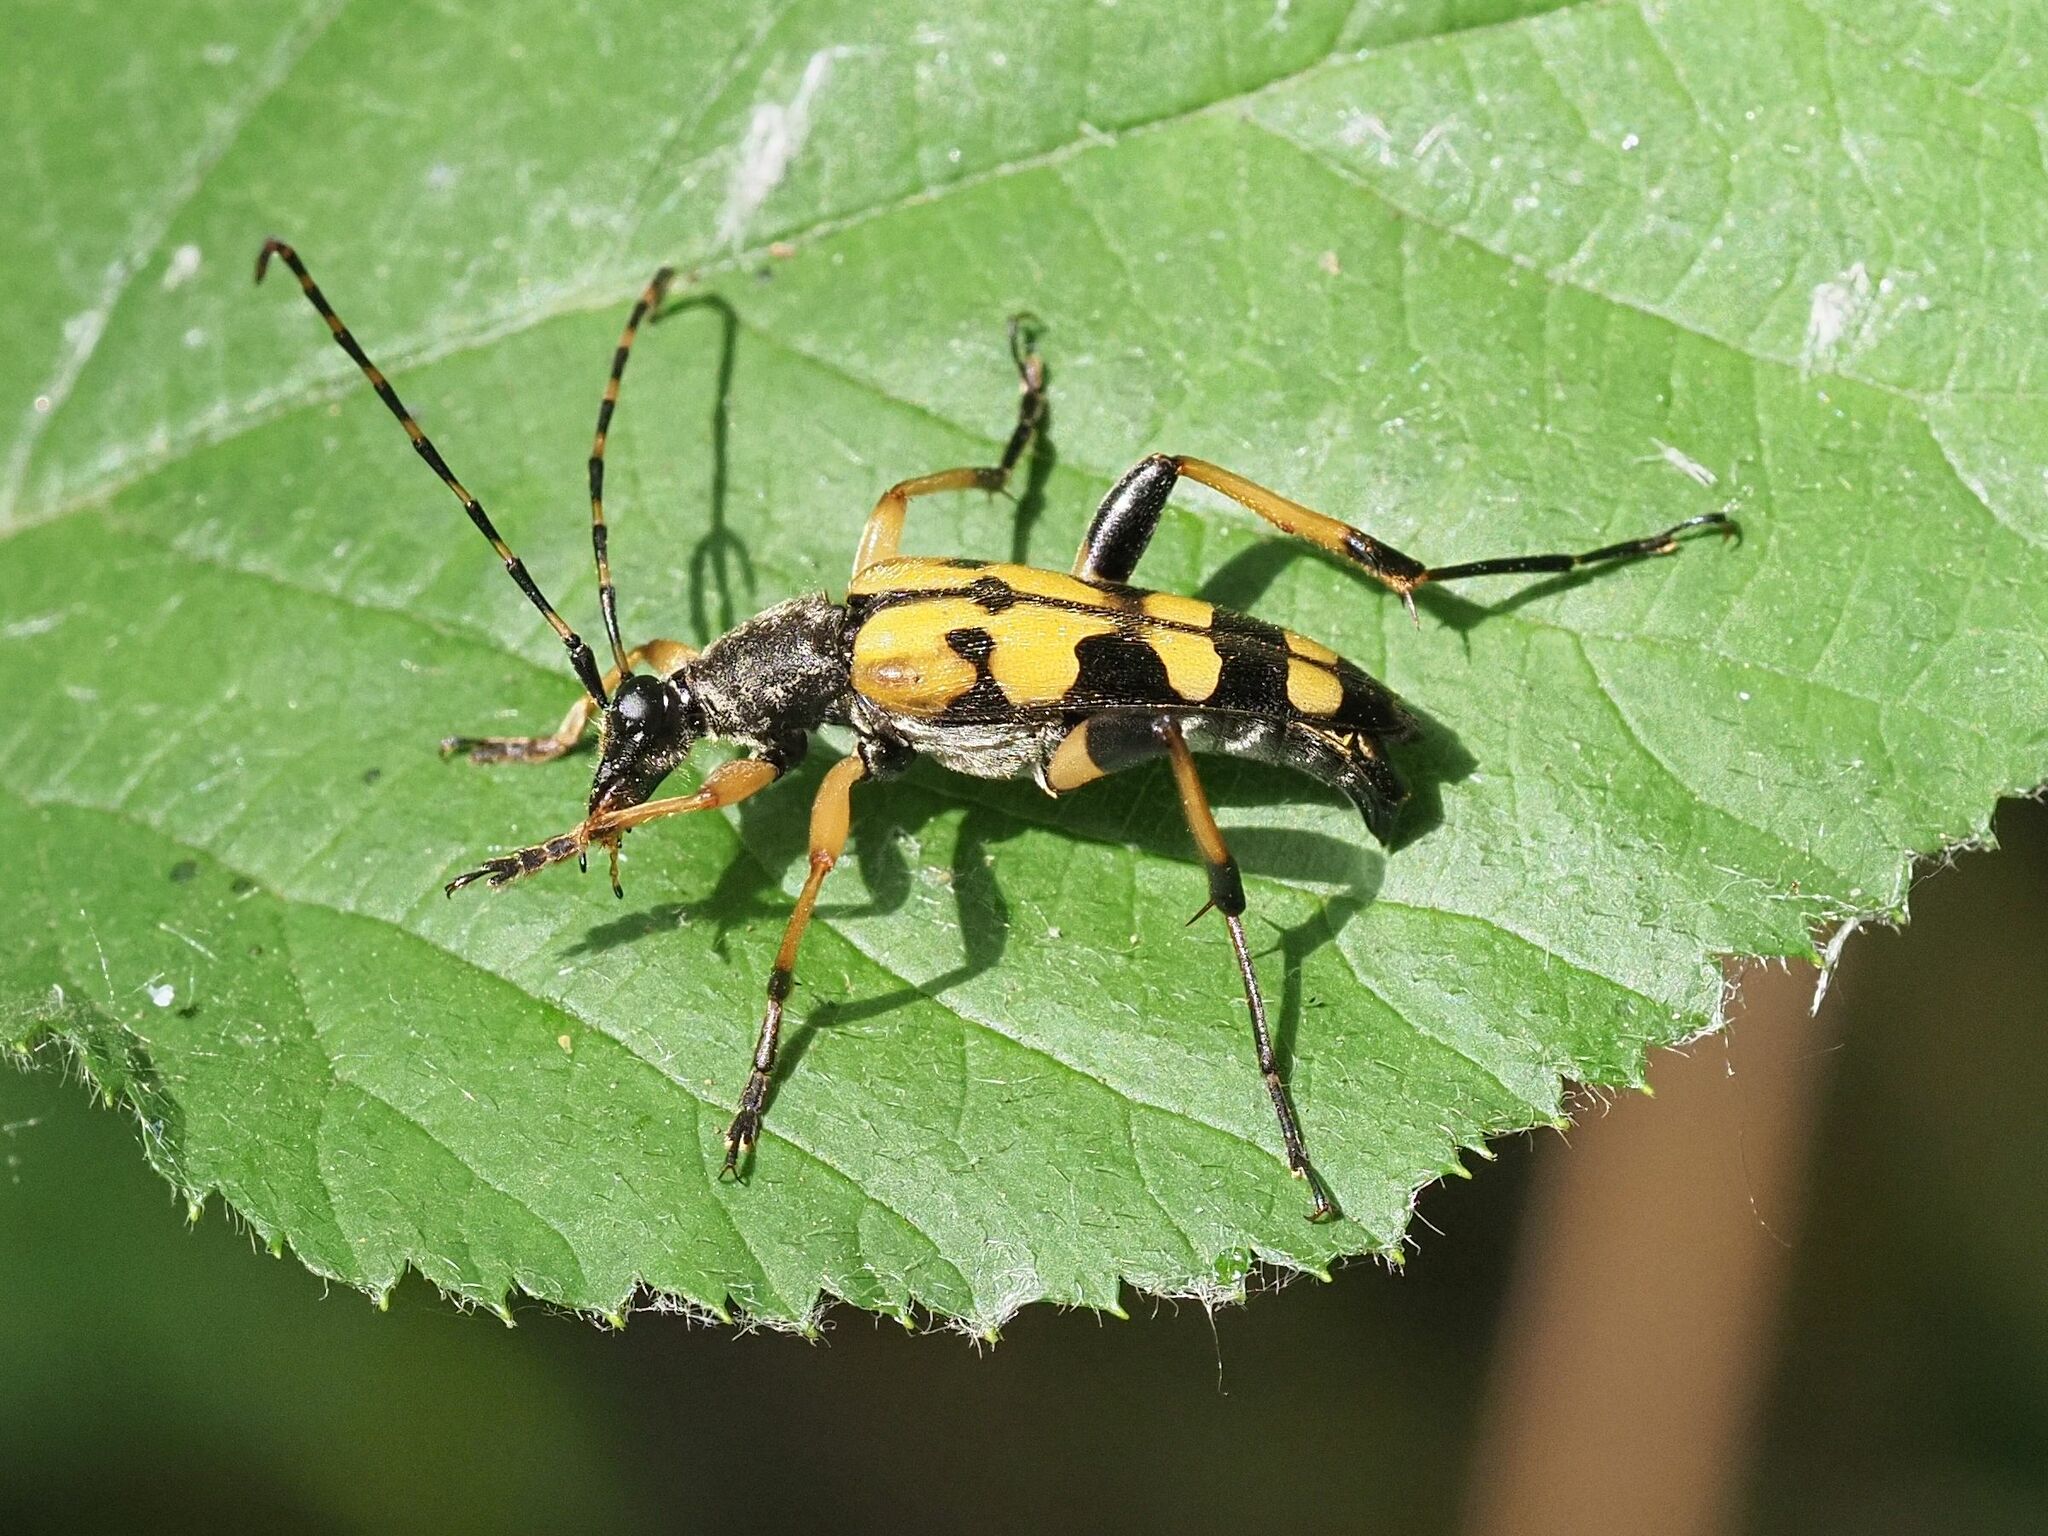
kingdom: Animalia
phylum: Arthropoda
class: Insecta
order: Coleoptera
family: Cerambycidae
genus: Rutpela
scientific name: Rutpela maculata
